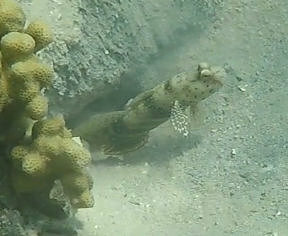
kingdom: Animalia
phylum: Chordata
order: Perciformes
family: Gobiidae
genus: Cryptocentrus
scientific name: Cryptocentrus caeruleopunctatus
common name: Blue-and-red-spotted goby
